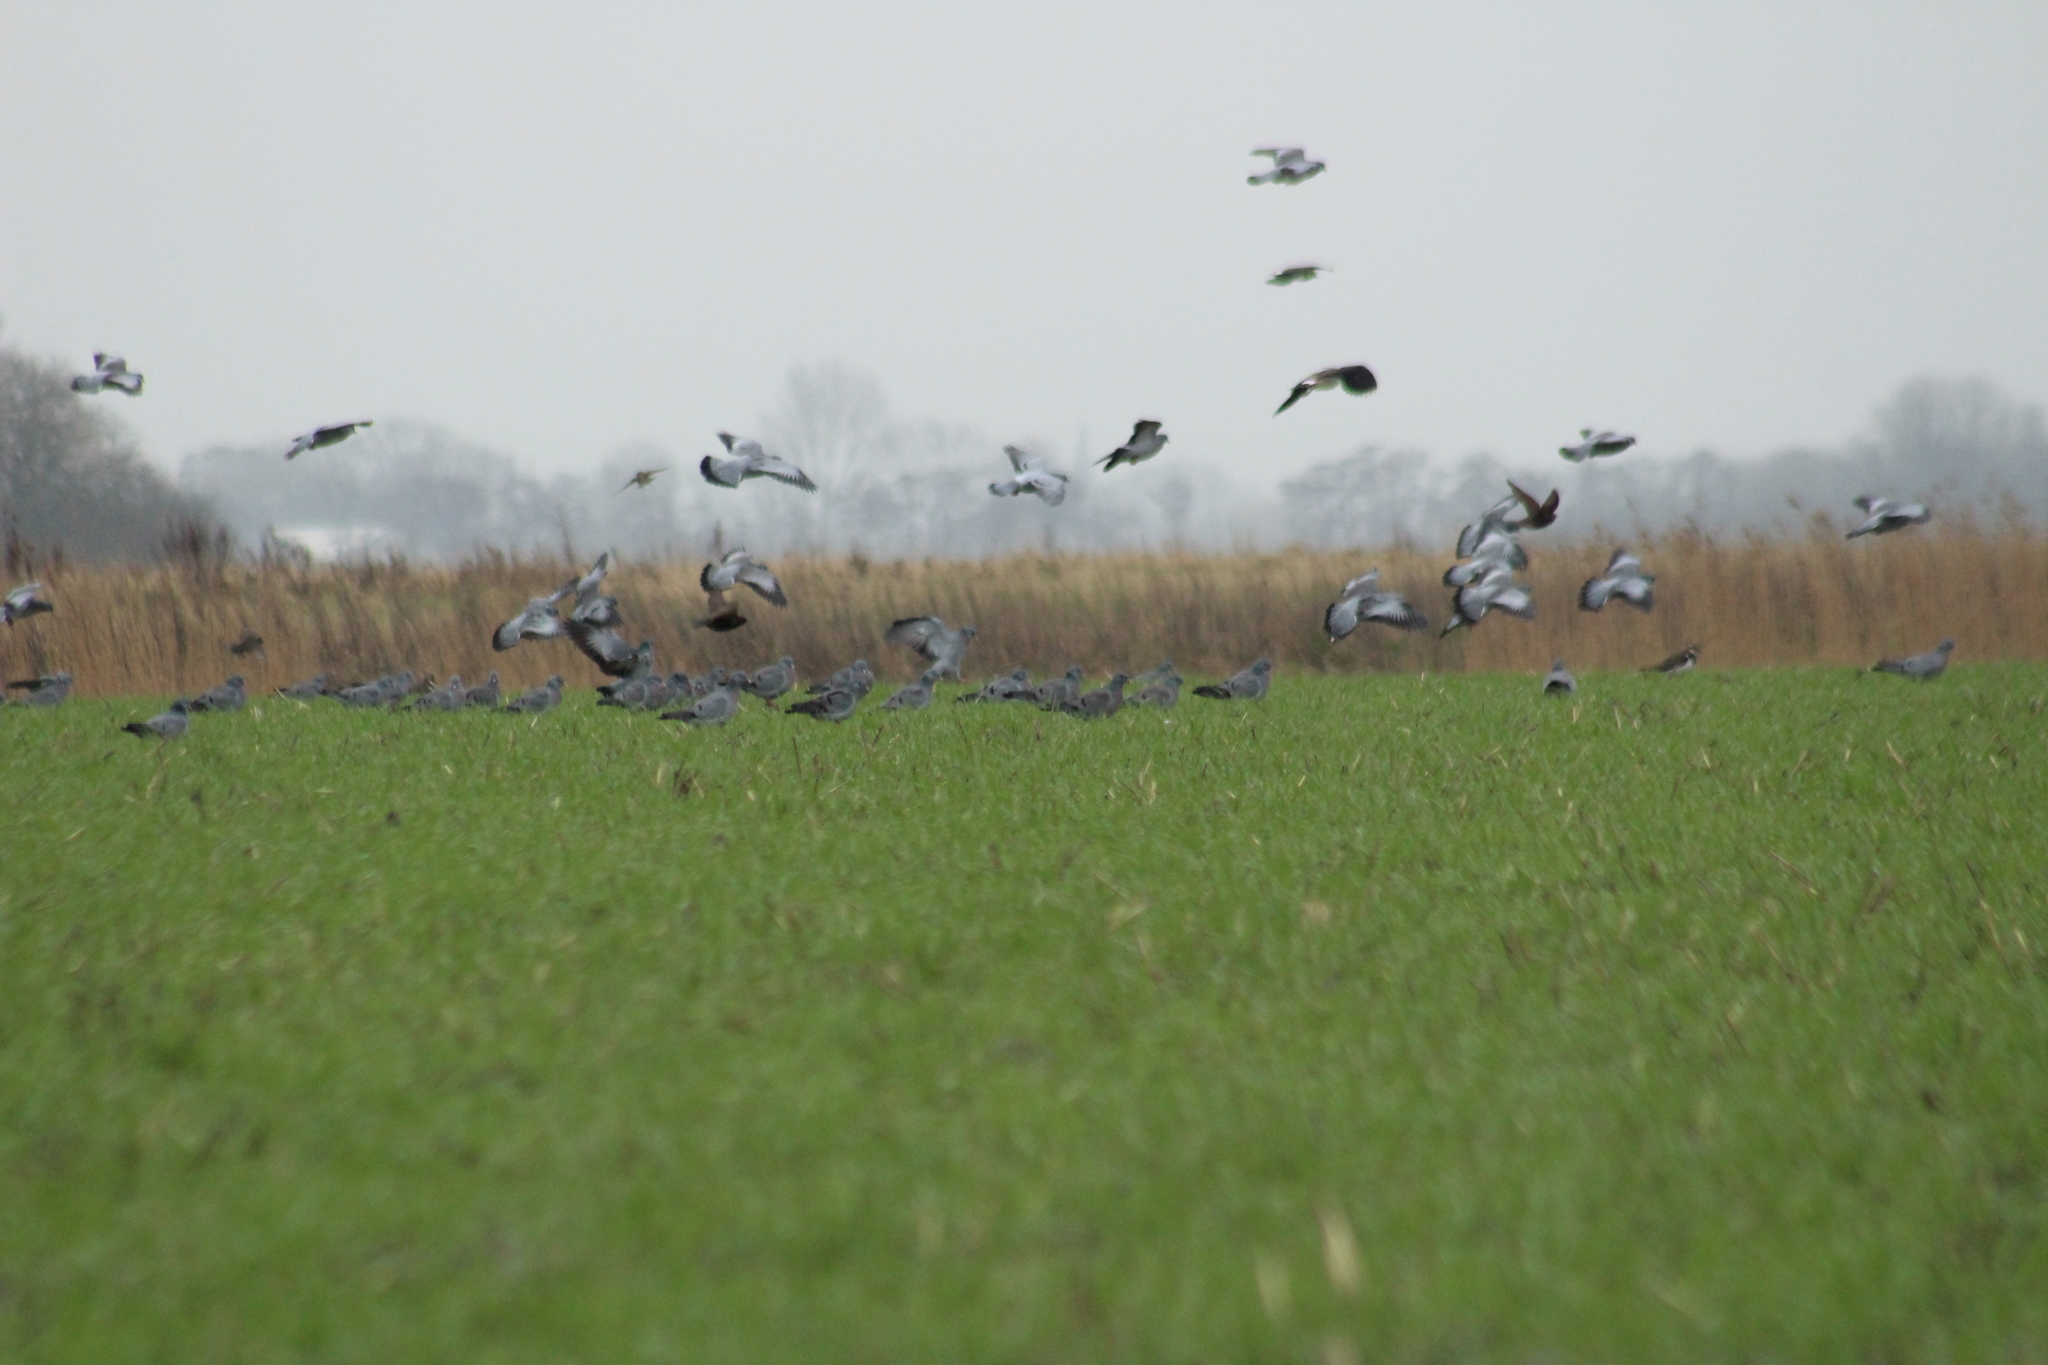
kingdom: Animalia
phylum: Chordata
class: Aves
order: Columbiformes
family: Columbidae
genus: Columba
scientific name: Columba oenas
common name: Stock dove
